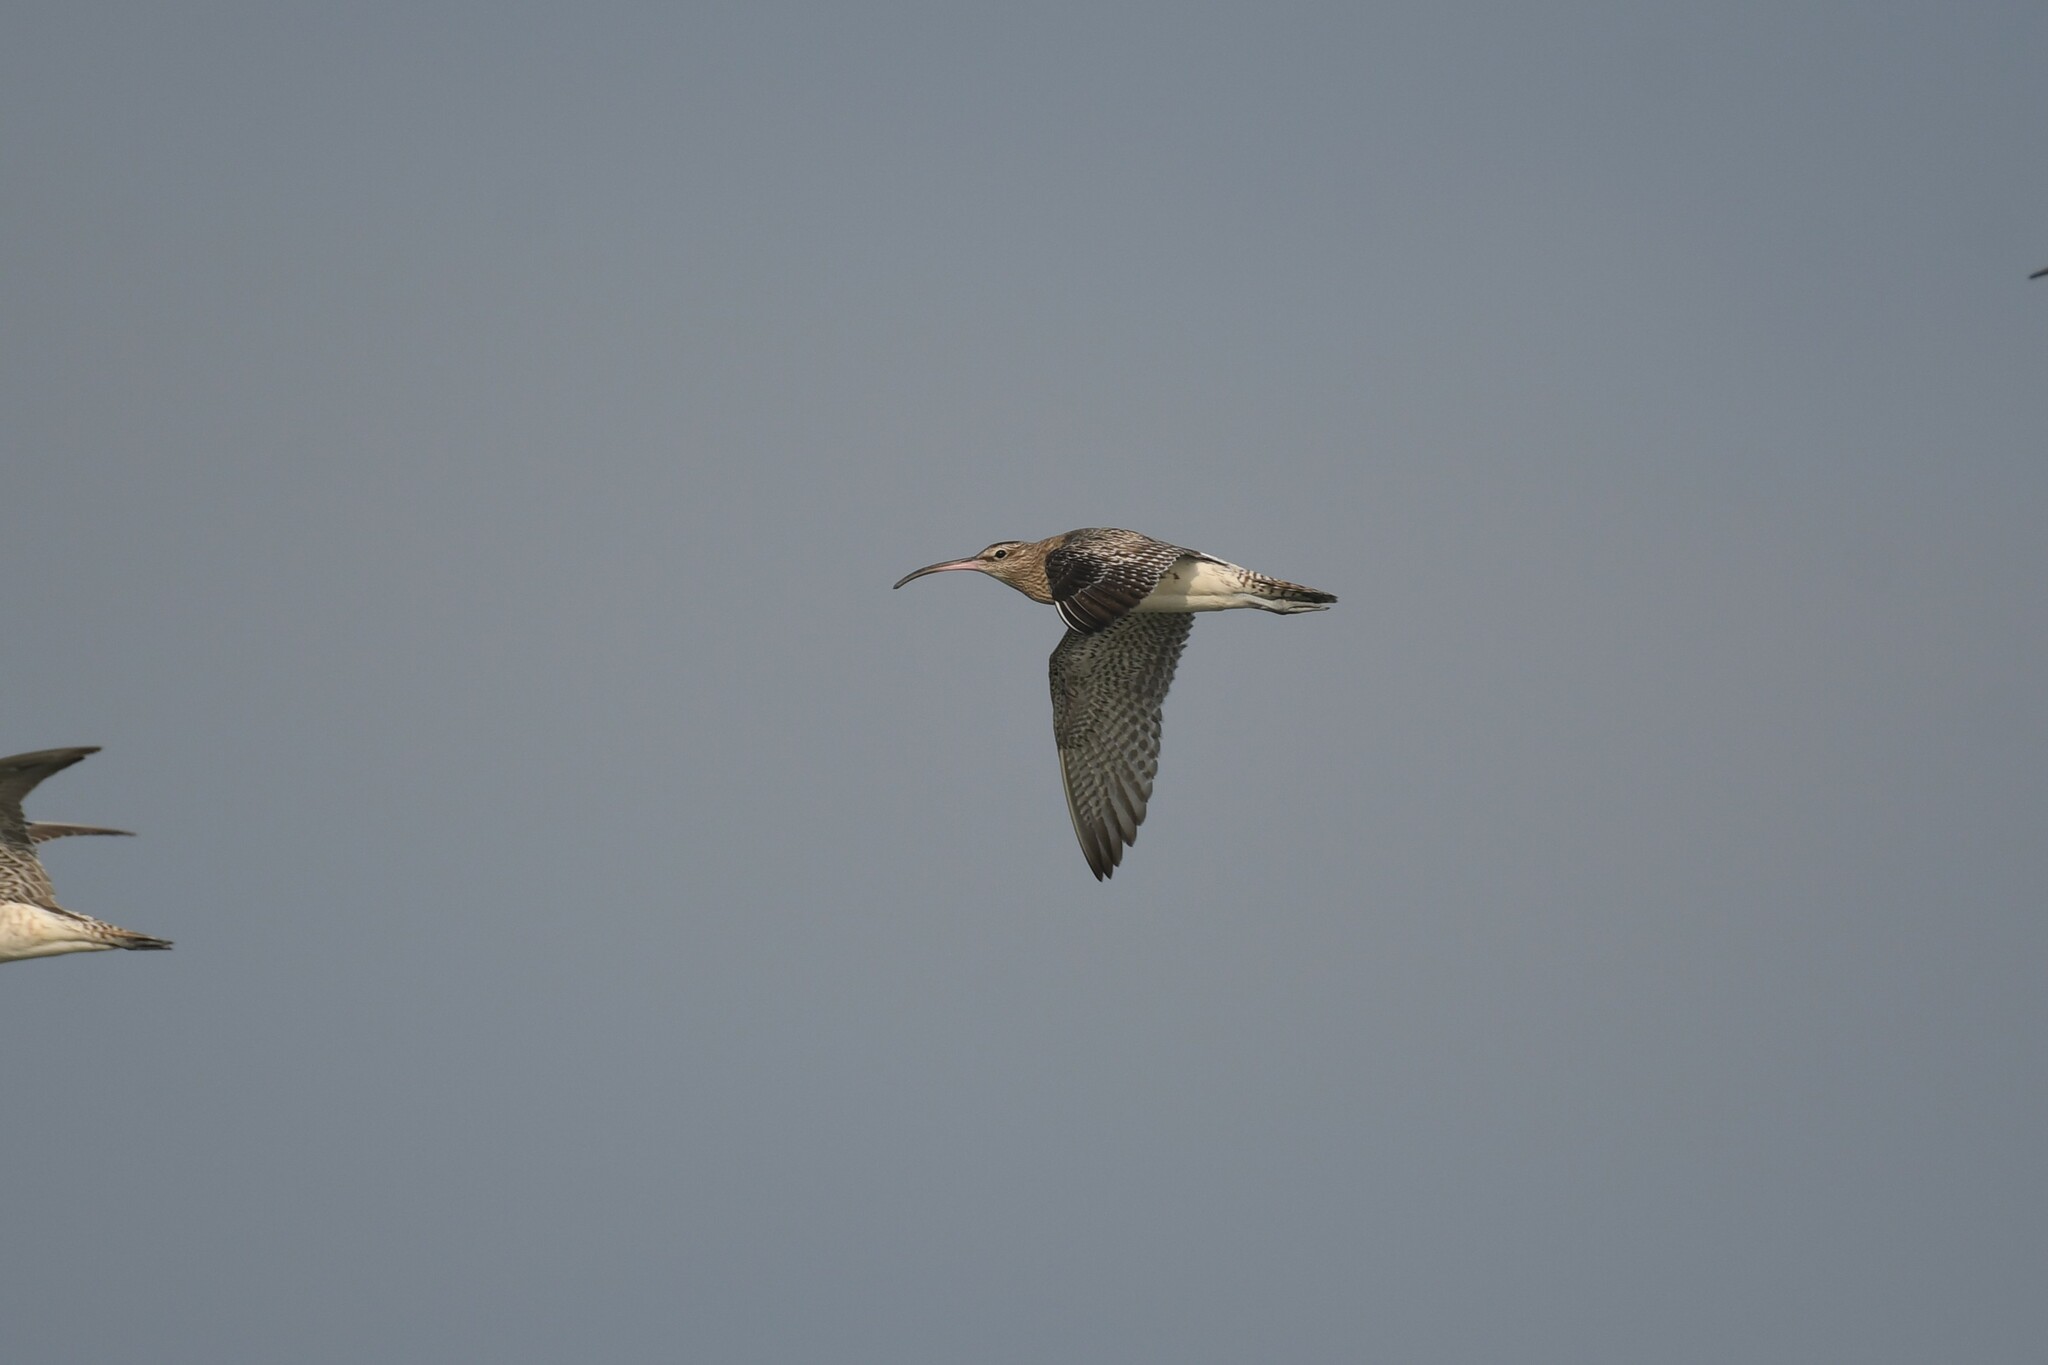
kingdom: Animalia
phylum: Chordata
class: Aves
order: Charadriiformes
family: Scolopacidae
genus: Numenius
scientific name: Numenius phaeopus
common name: Whimbrel
